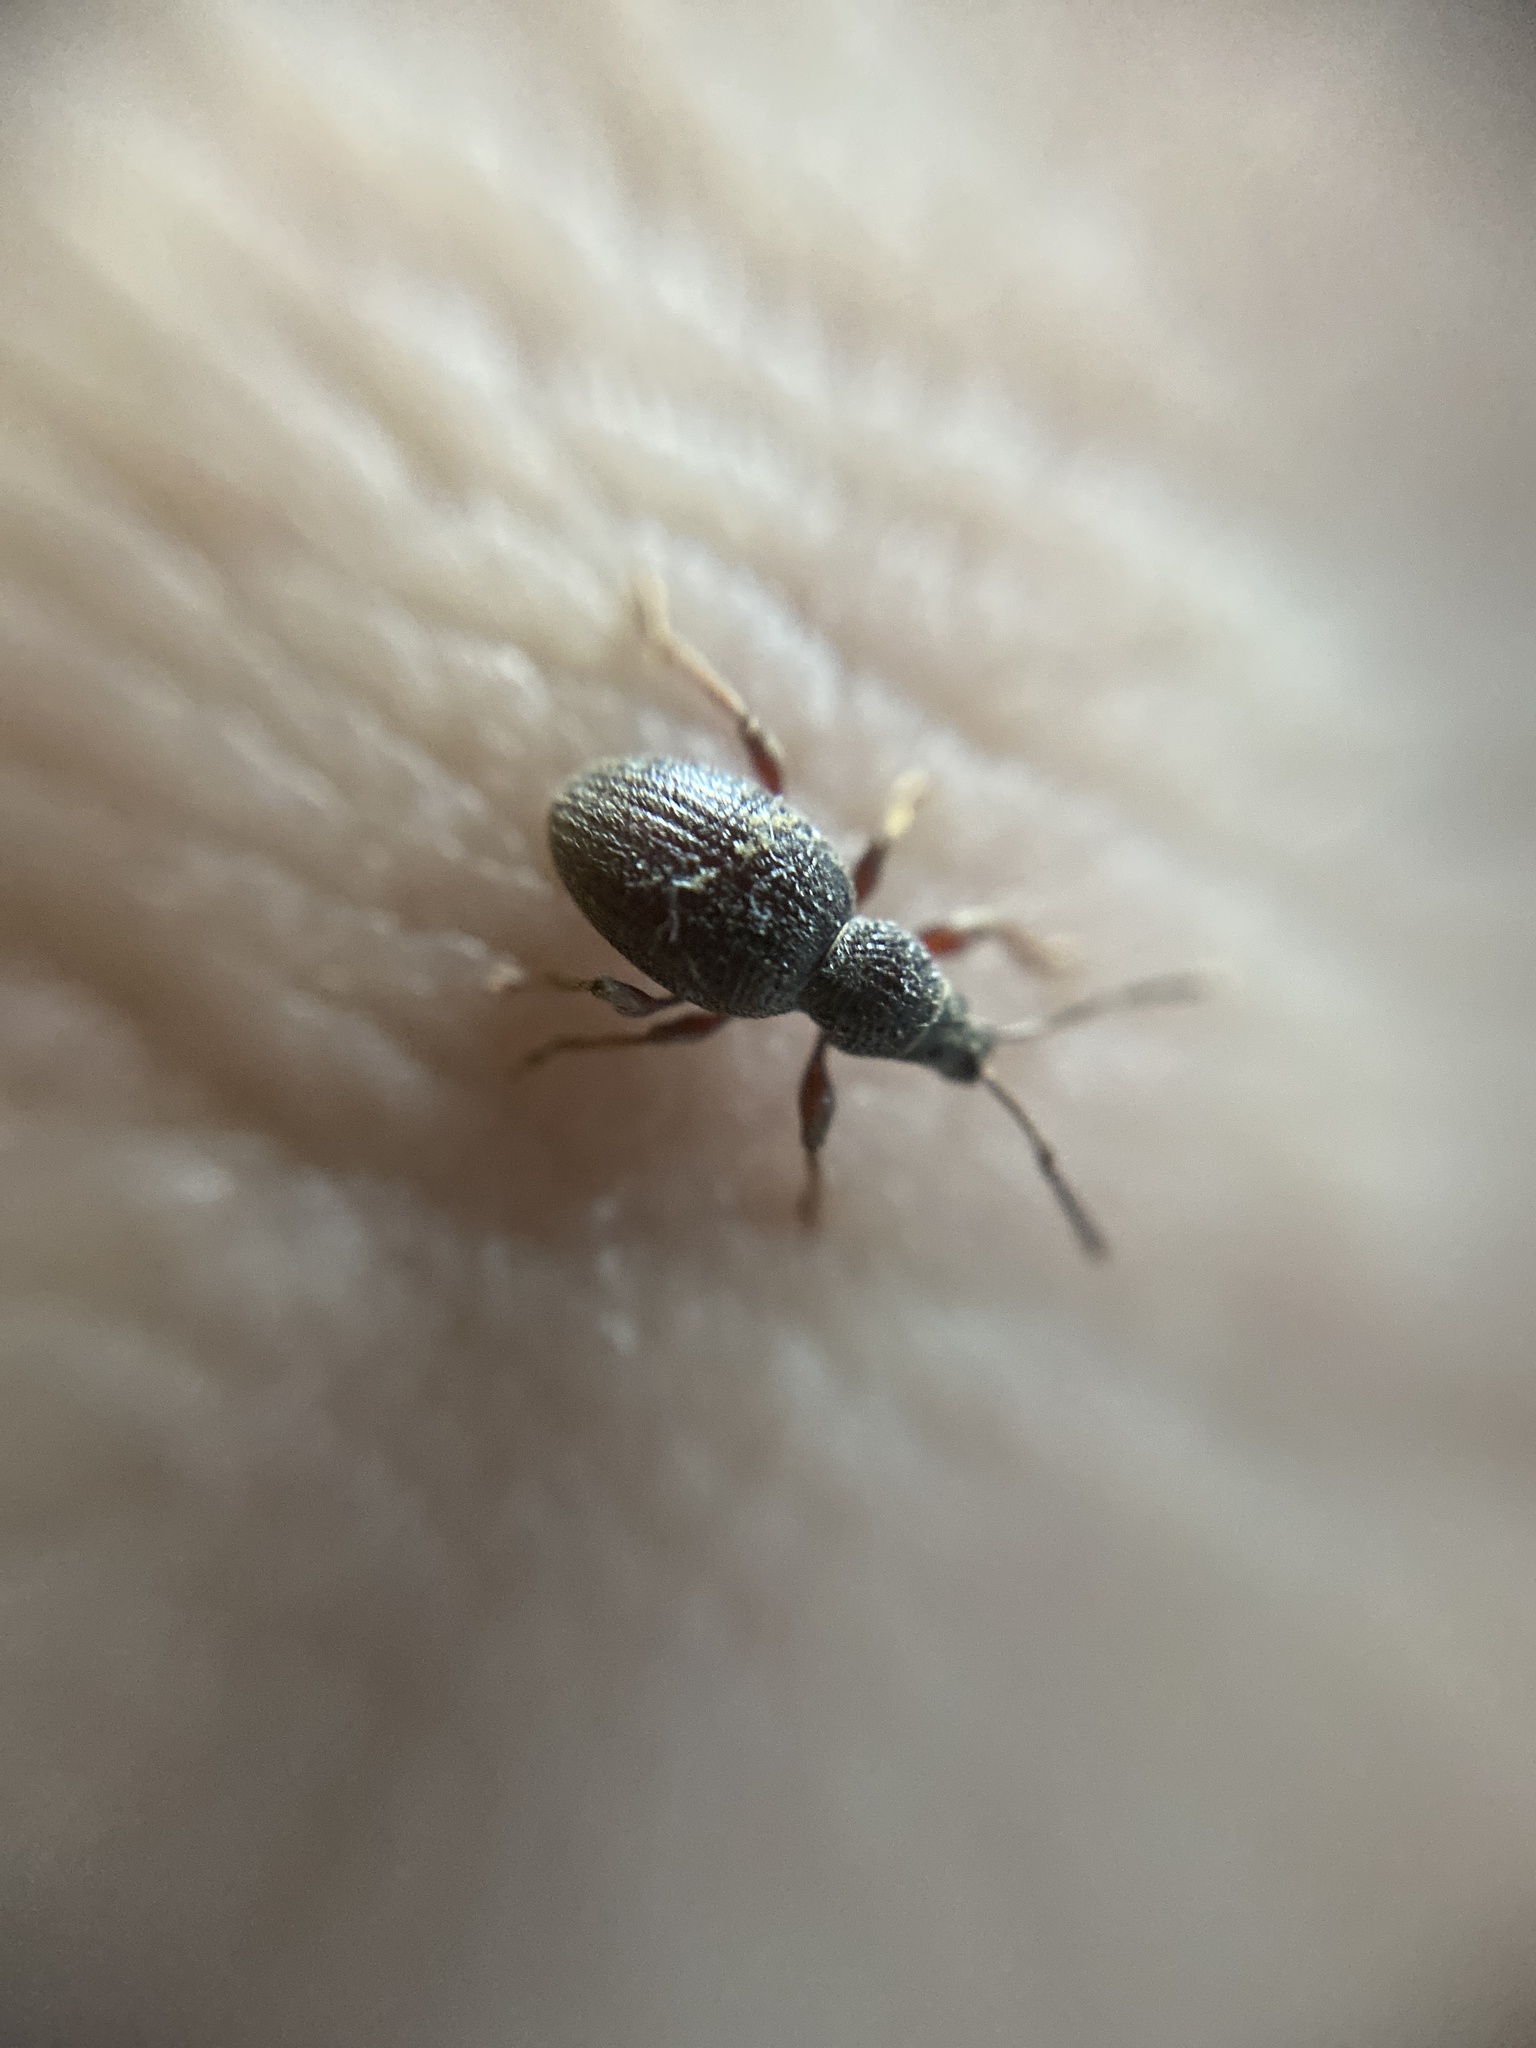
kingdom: Animalia
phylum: Arthropoda
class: Insecta
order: Coleoptera
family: Curculionidae
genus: Otiorhynchus
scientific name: Otiorhynchus ovatus
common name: Strawberry root weevil
